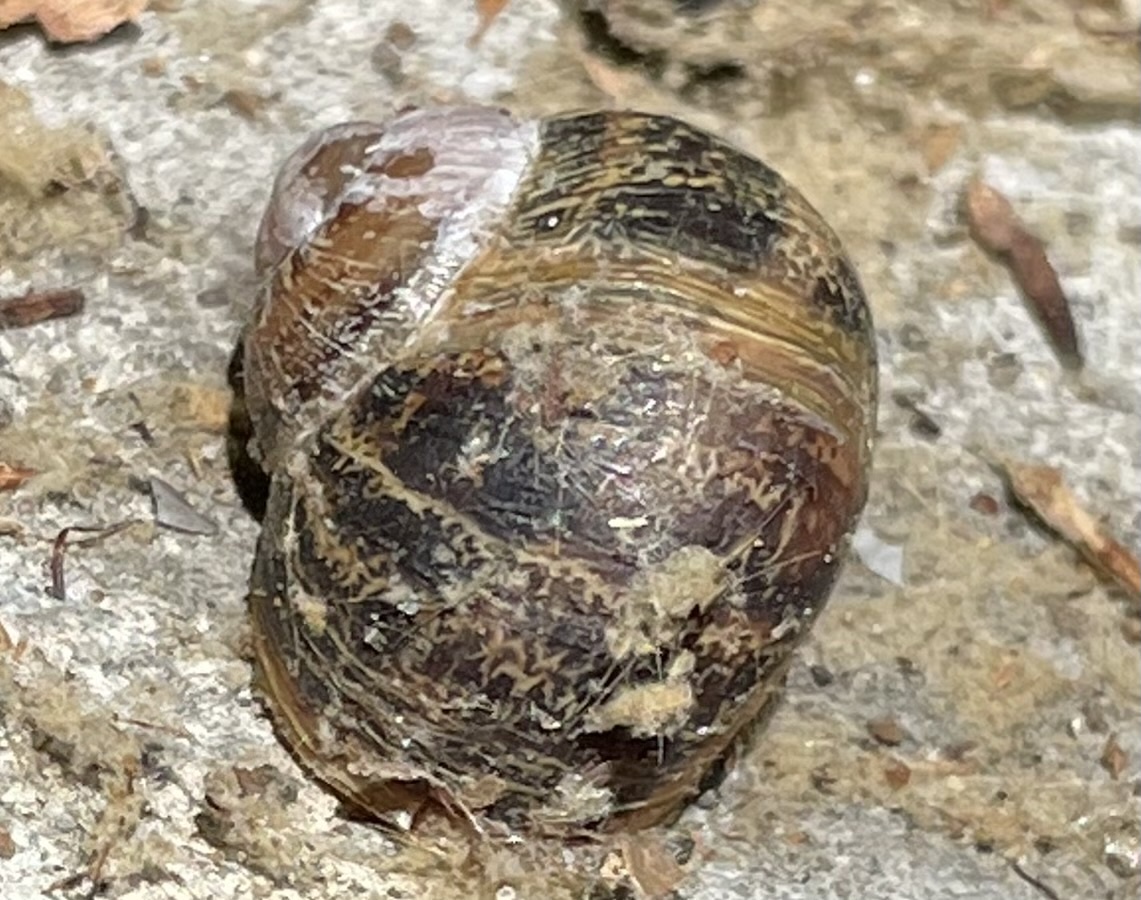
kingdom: Animalia
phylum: Mollusca
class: Gastropoda
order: Stylommatophora
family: Helicidae
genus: Cornu
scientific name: Cornu aspersum
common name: Brown garden snail
